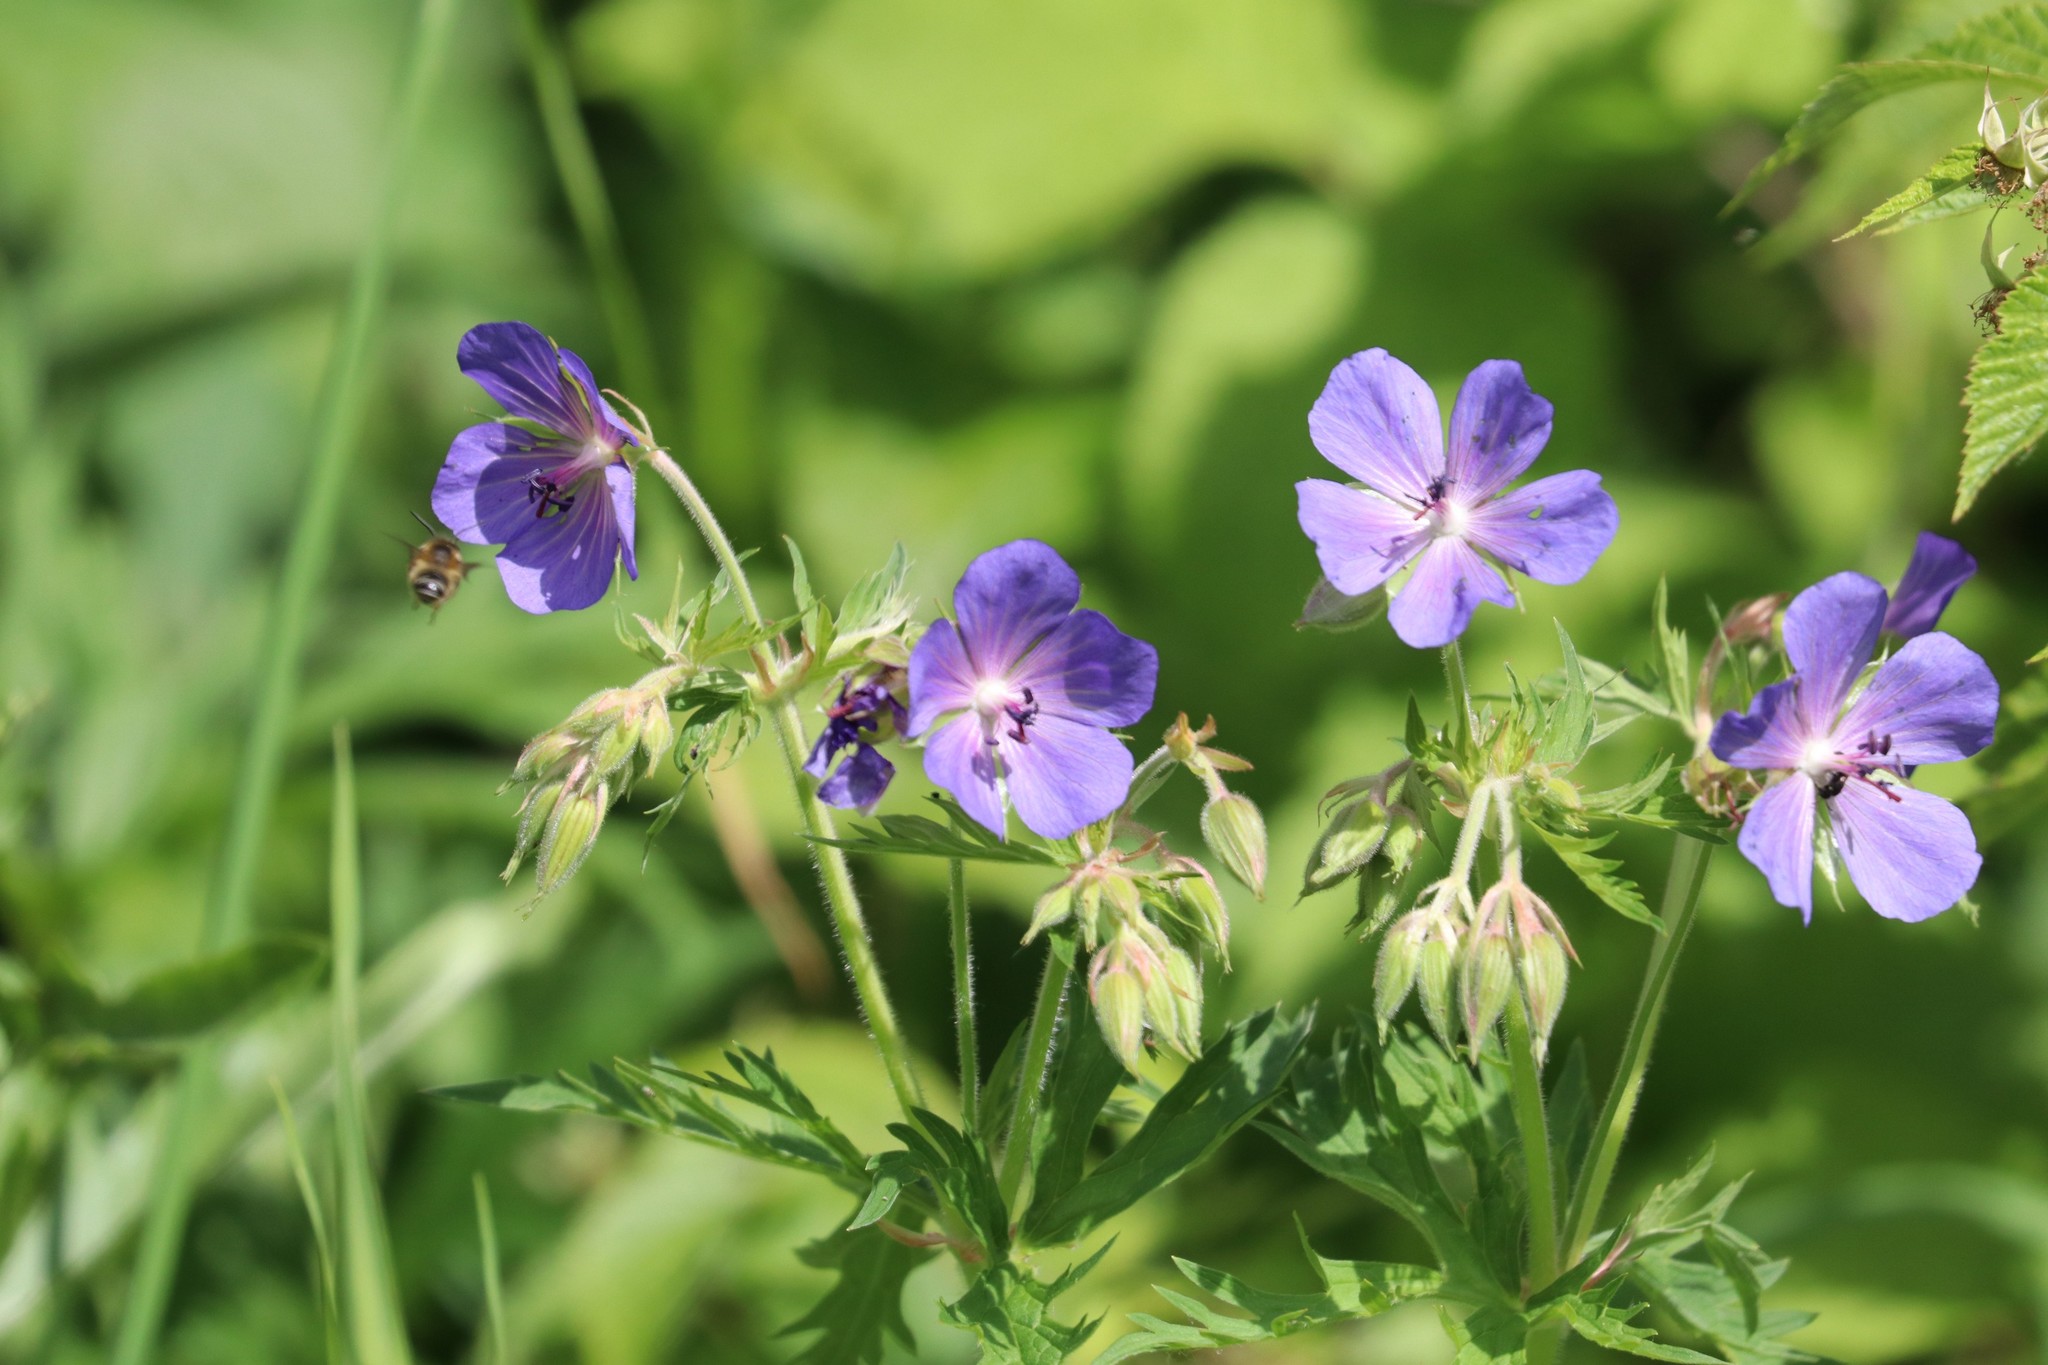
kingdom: Plantae
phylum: Tracheophyta
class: Magnoliopsida
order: Geraniales
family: Geraniaceae
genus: Geranium
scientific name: Geranium pratense
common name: Meadow crane's-bill
